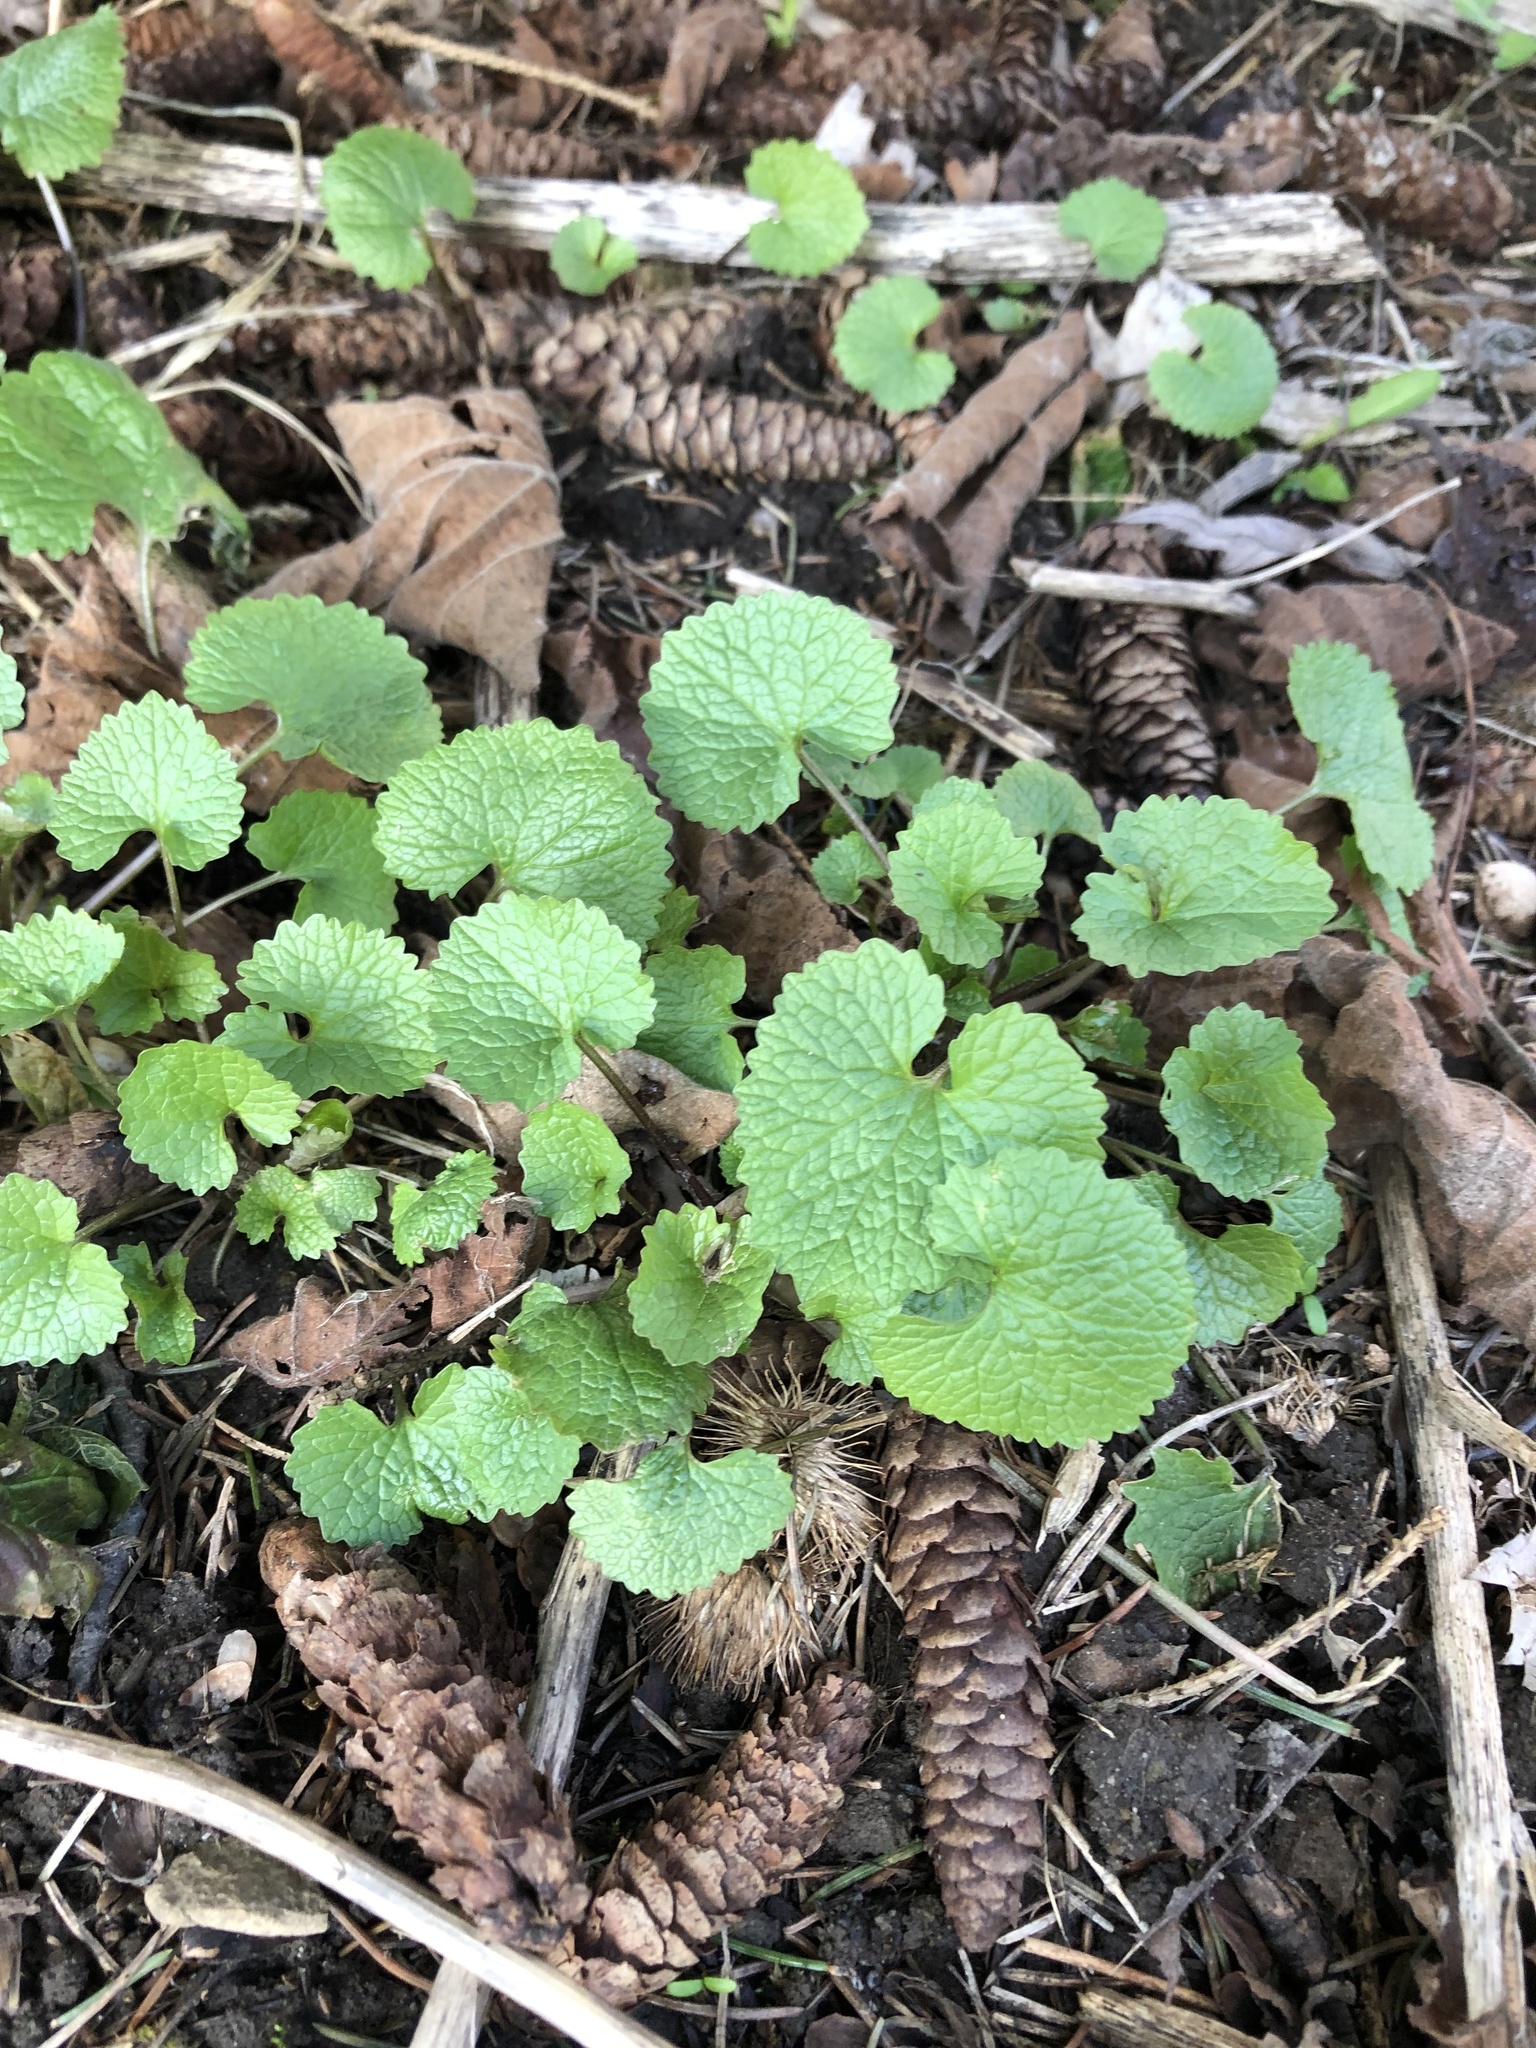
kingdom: Plantae
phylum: Tracheophyta
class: Magnoliopsida
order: Brassicales
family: Brassicaceae
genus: Alliaria
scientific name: Alliaria petiolata
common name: Garlic mustard
